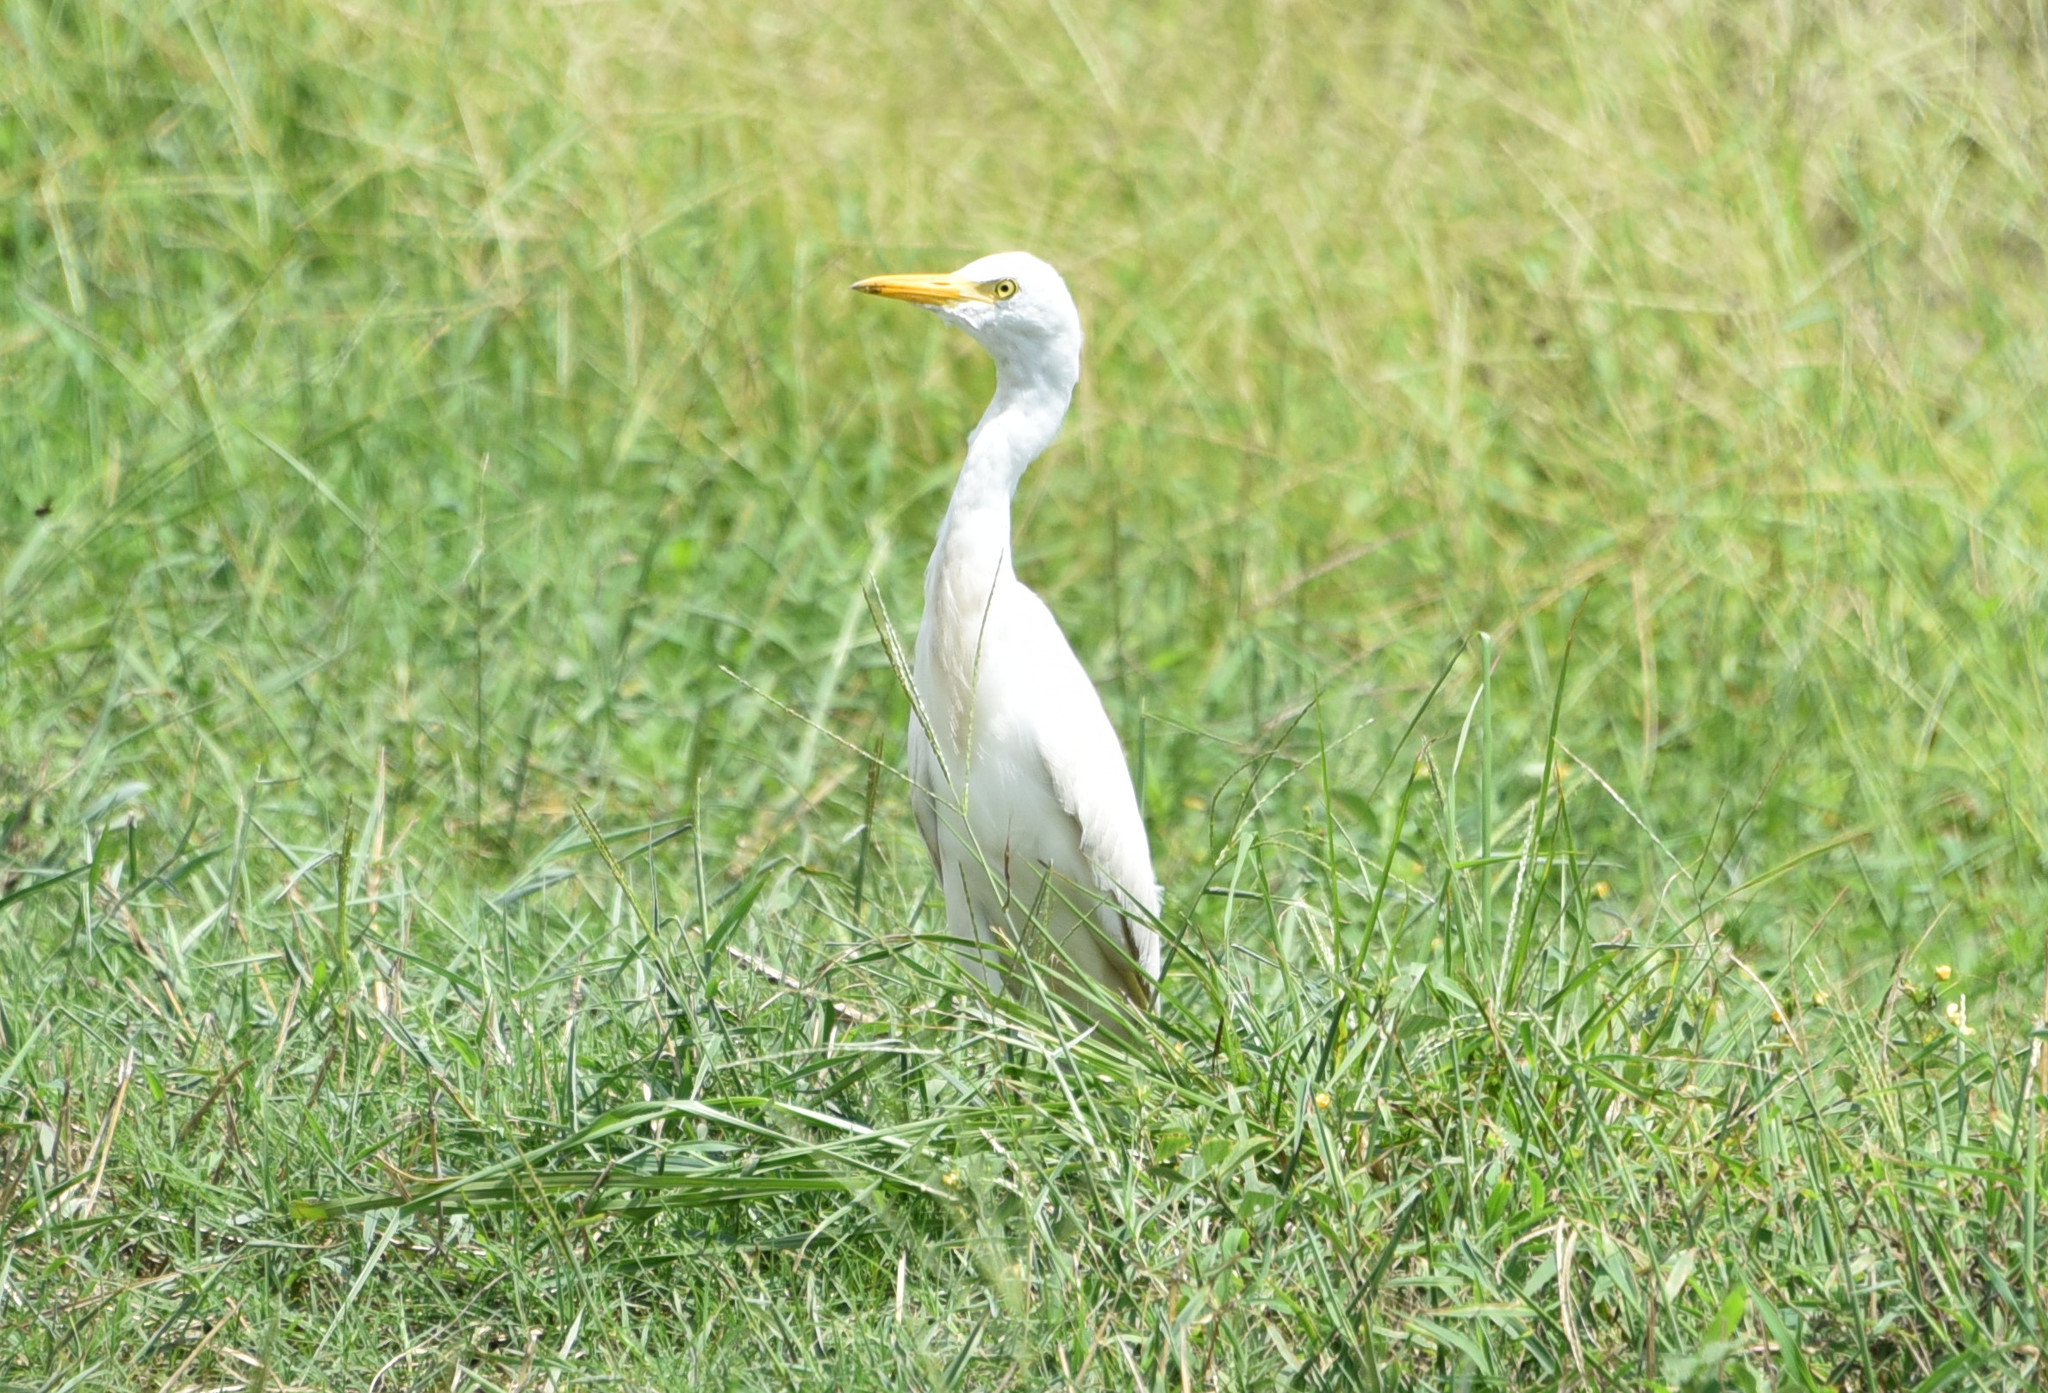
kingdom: Animalia
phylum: Chordata
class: Aves
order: Pelecaniformes
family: Ardeidae
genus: Bubulcus
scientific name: Bubulcus ibis
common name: Cattle egret
